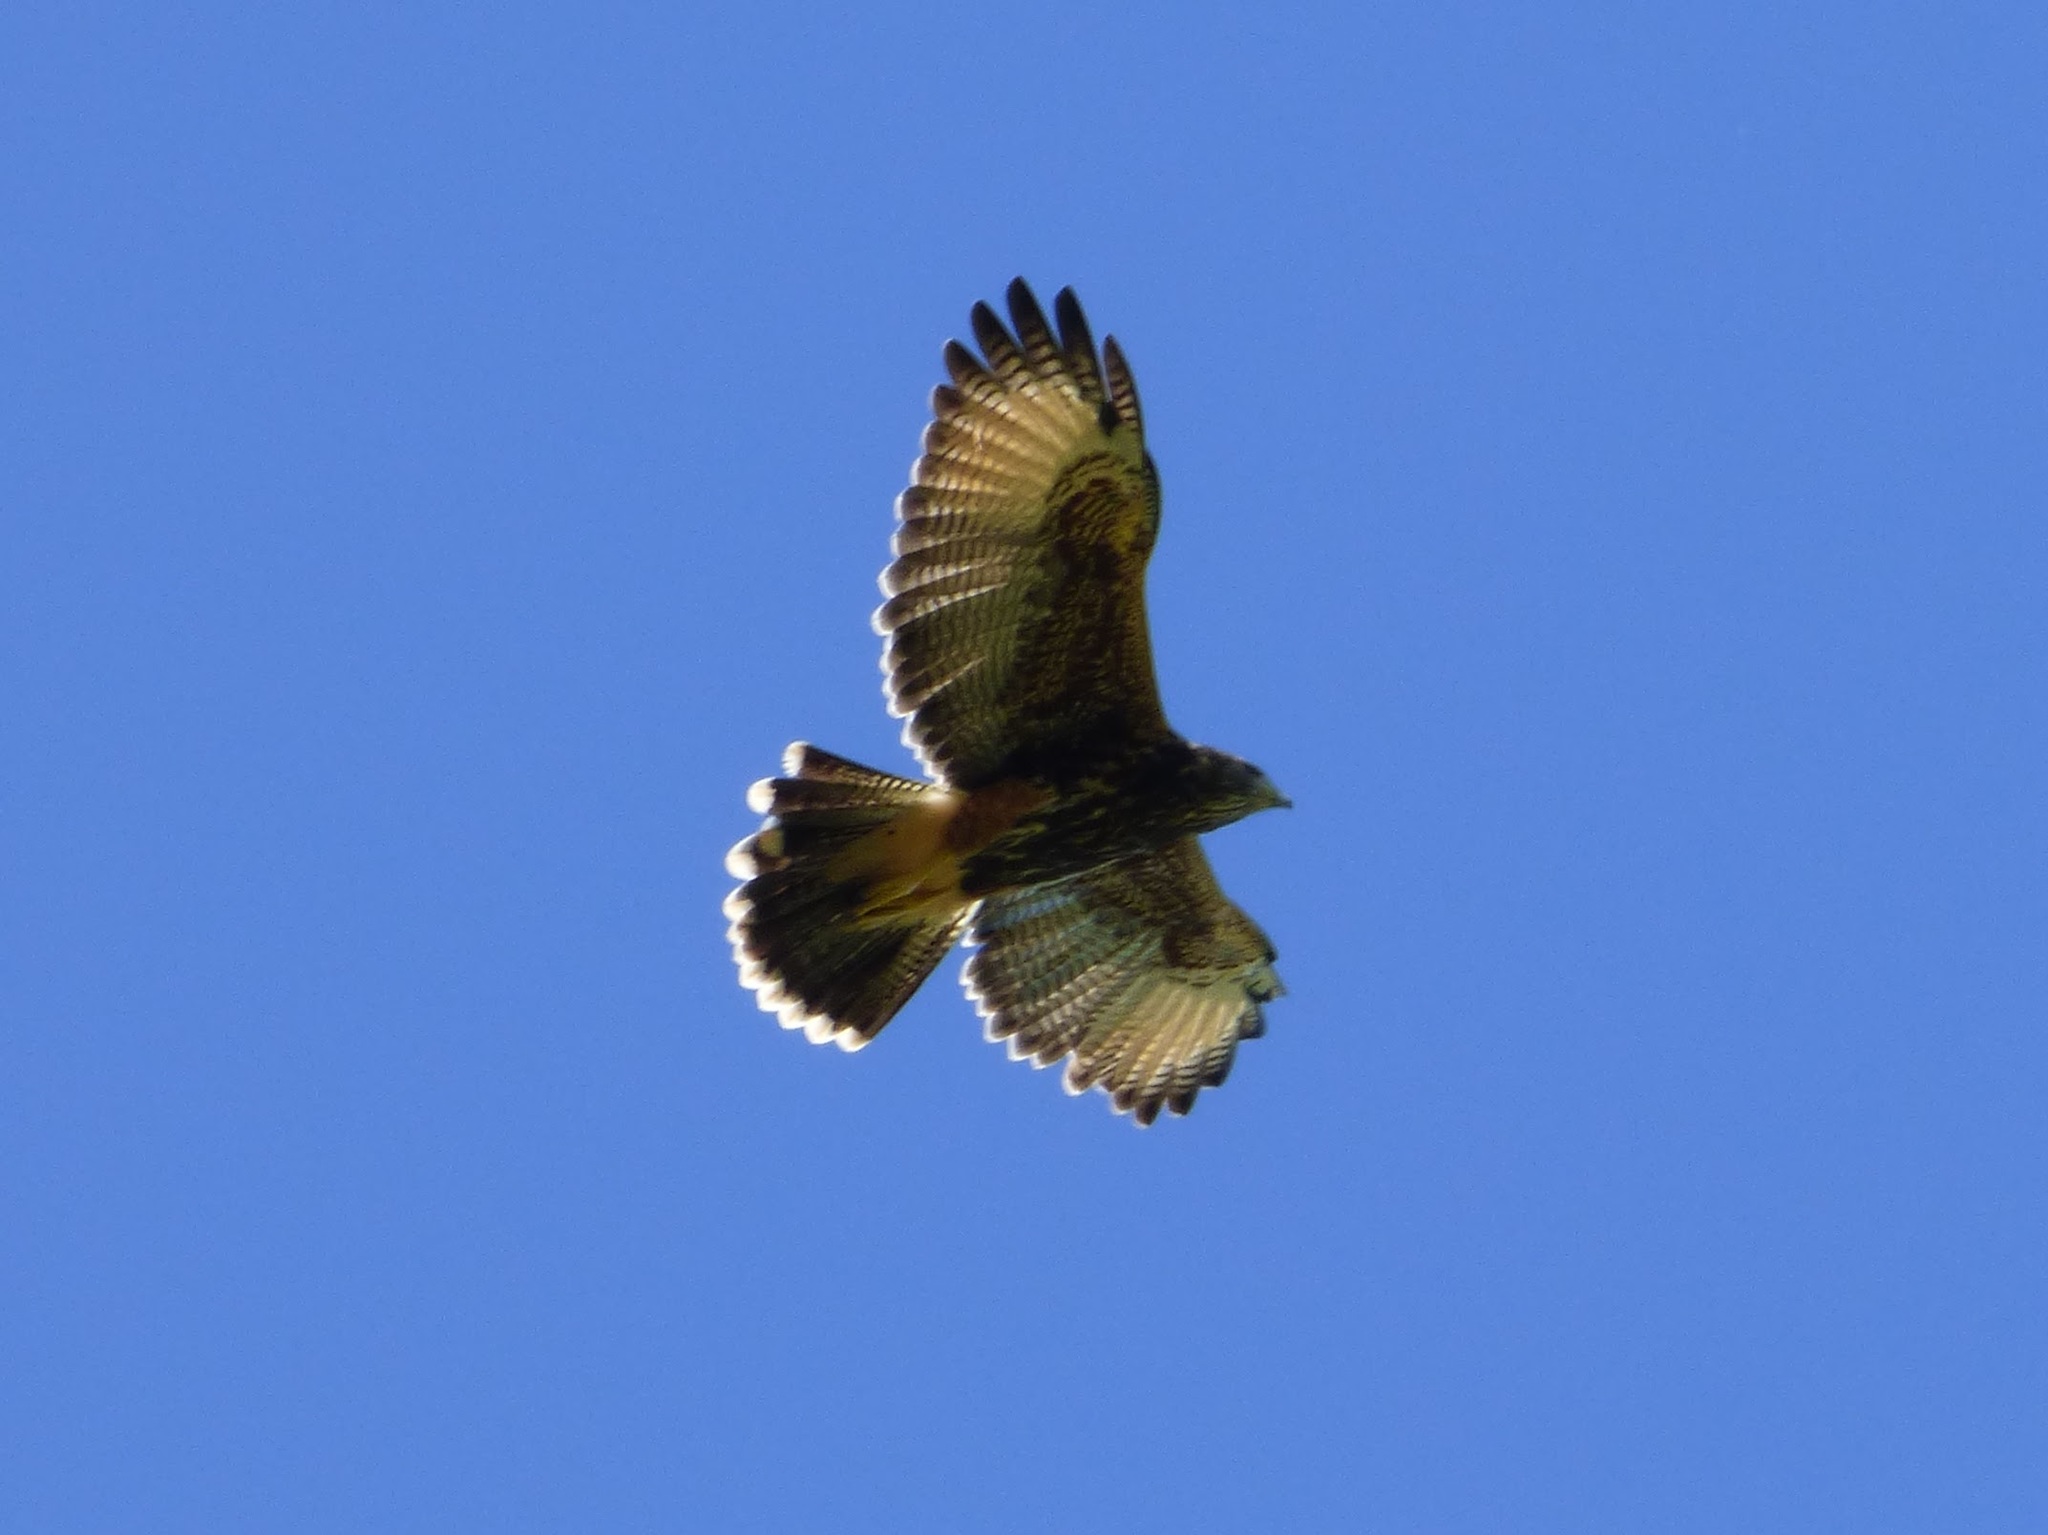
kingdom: Animalia
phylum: Chordata
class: Aves
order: Accipitriformes
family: Accipitridae
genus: Parabuteo
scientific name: Parabuteo unicinctus
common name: Harris's hawk
